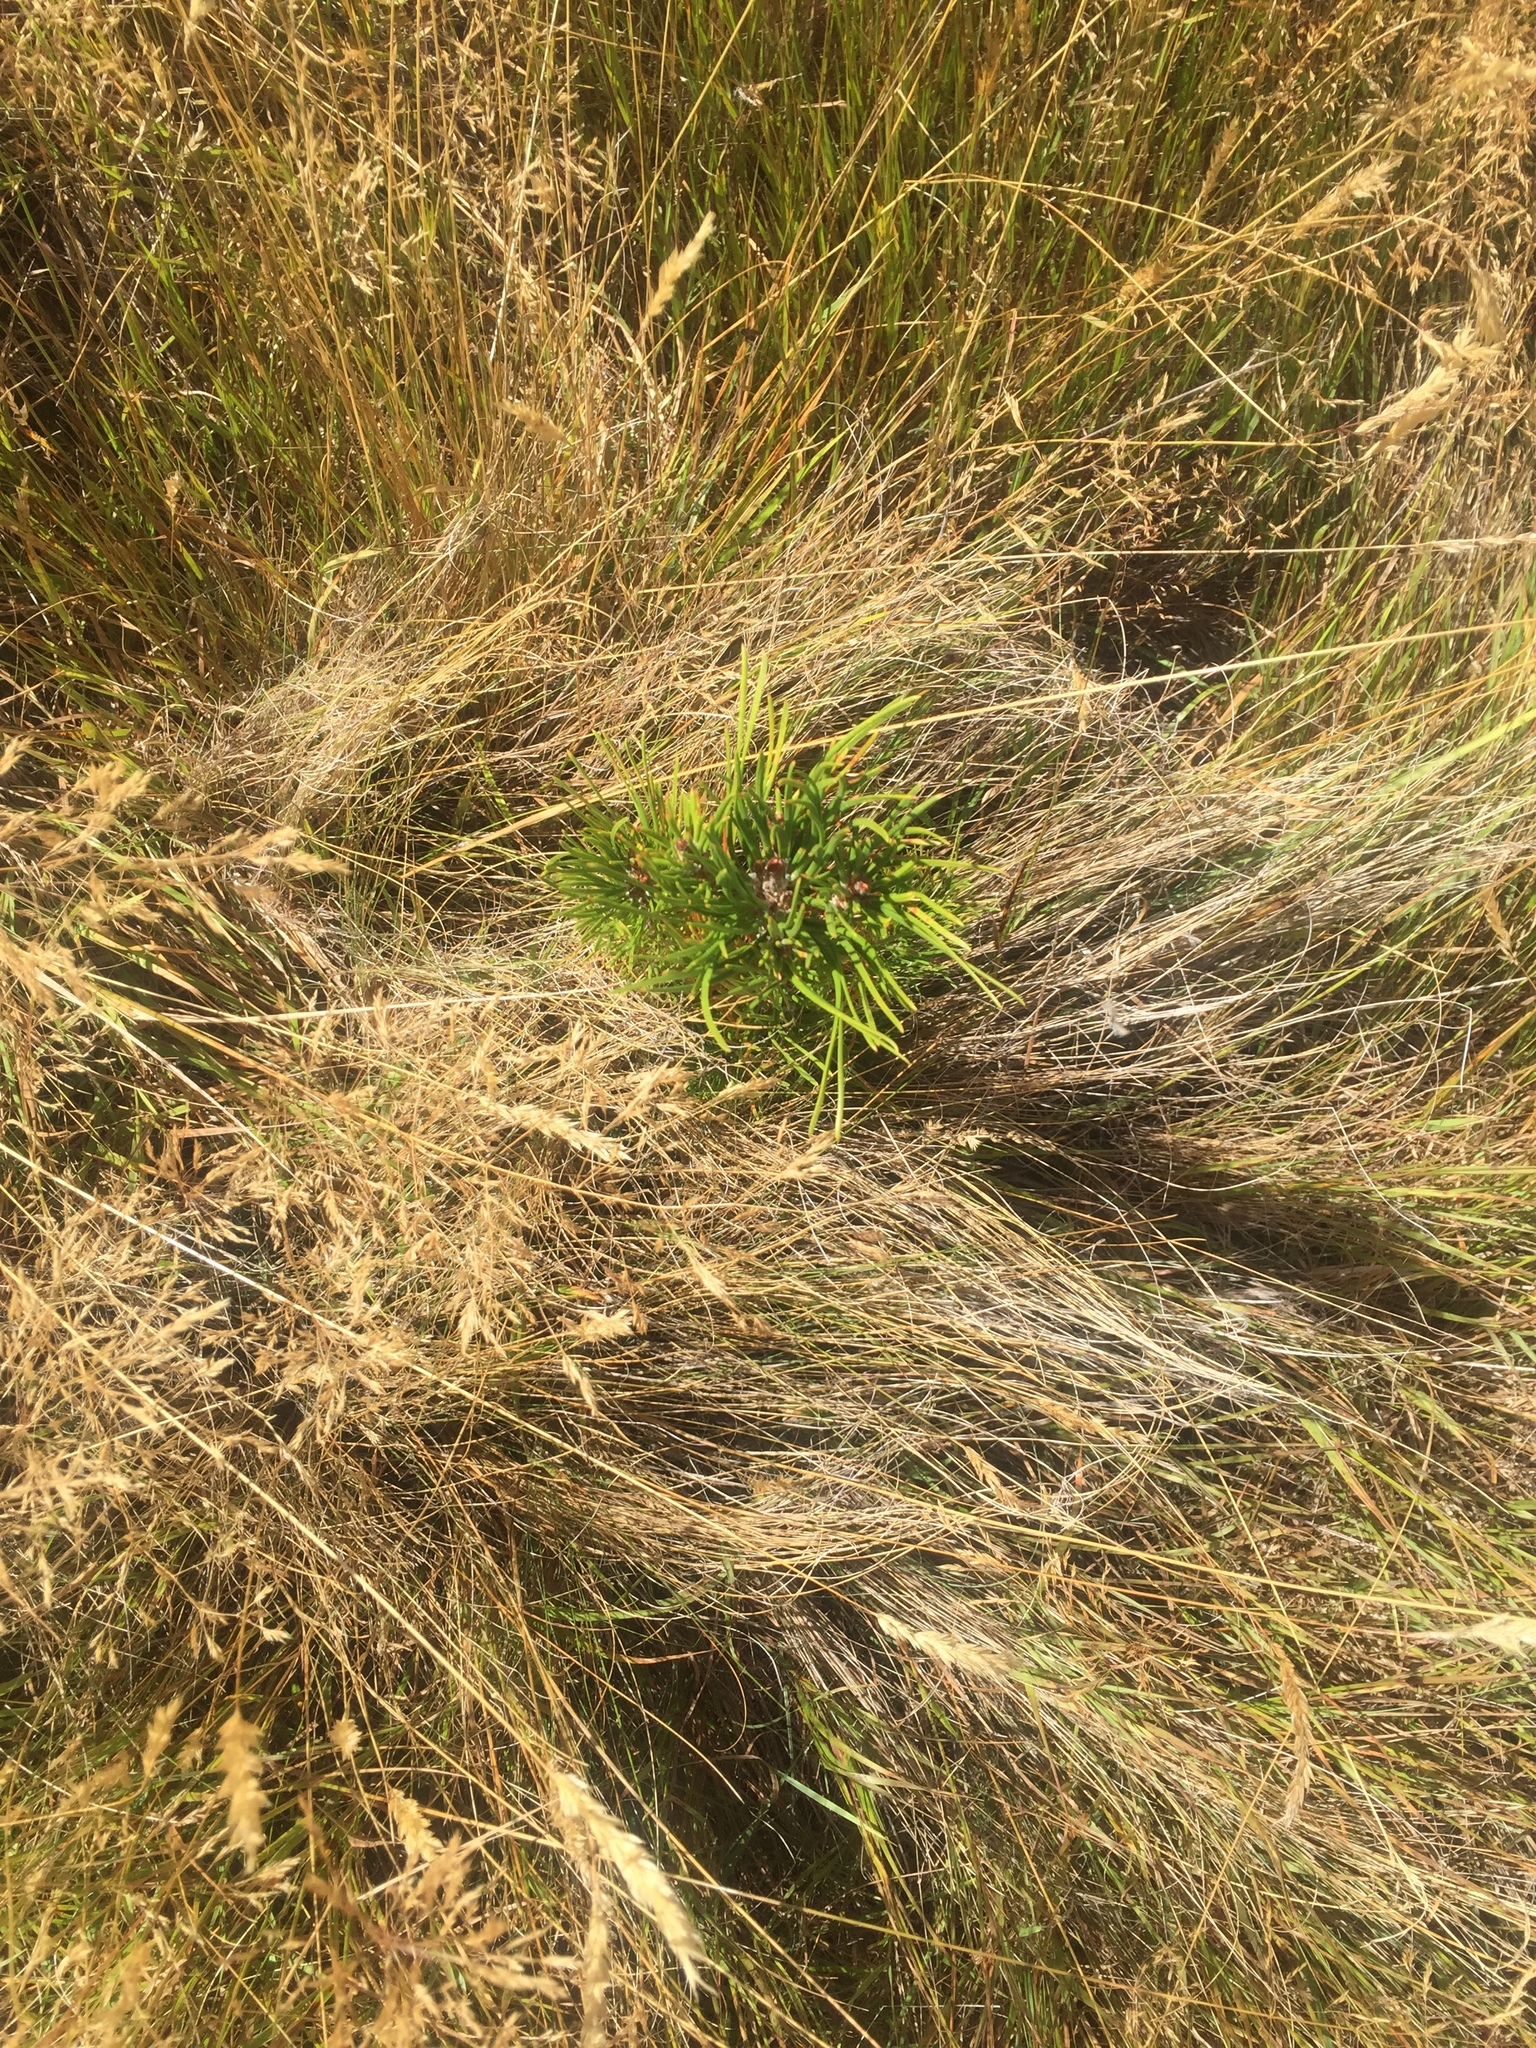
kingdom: Plantae
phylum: Tracheophyta
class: Pinopsida
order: Pinales
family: Pinaceae
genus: Pinus
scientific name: Pinus contorta
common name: Lodgepole pine
